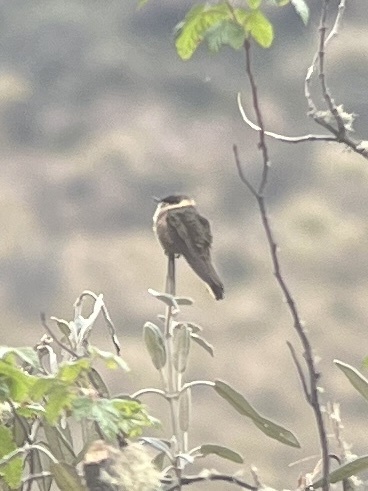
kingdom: Animalia
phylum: Chordata
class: Aves
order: Apodiformes
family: Trochilidae
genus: Oxypogon
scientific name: Oxypogon stuebelii
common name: Buffy helmetcrest
